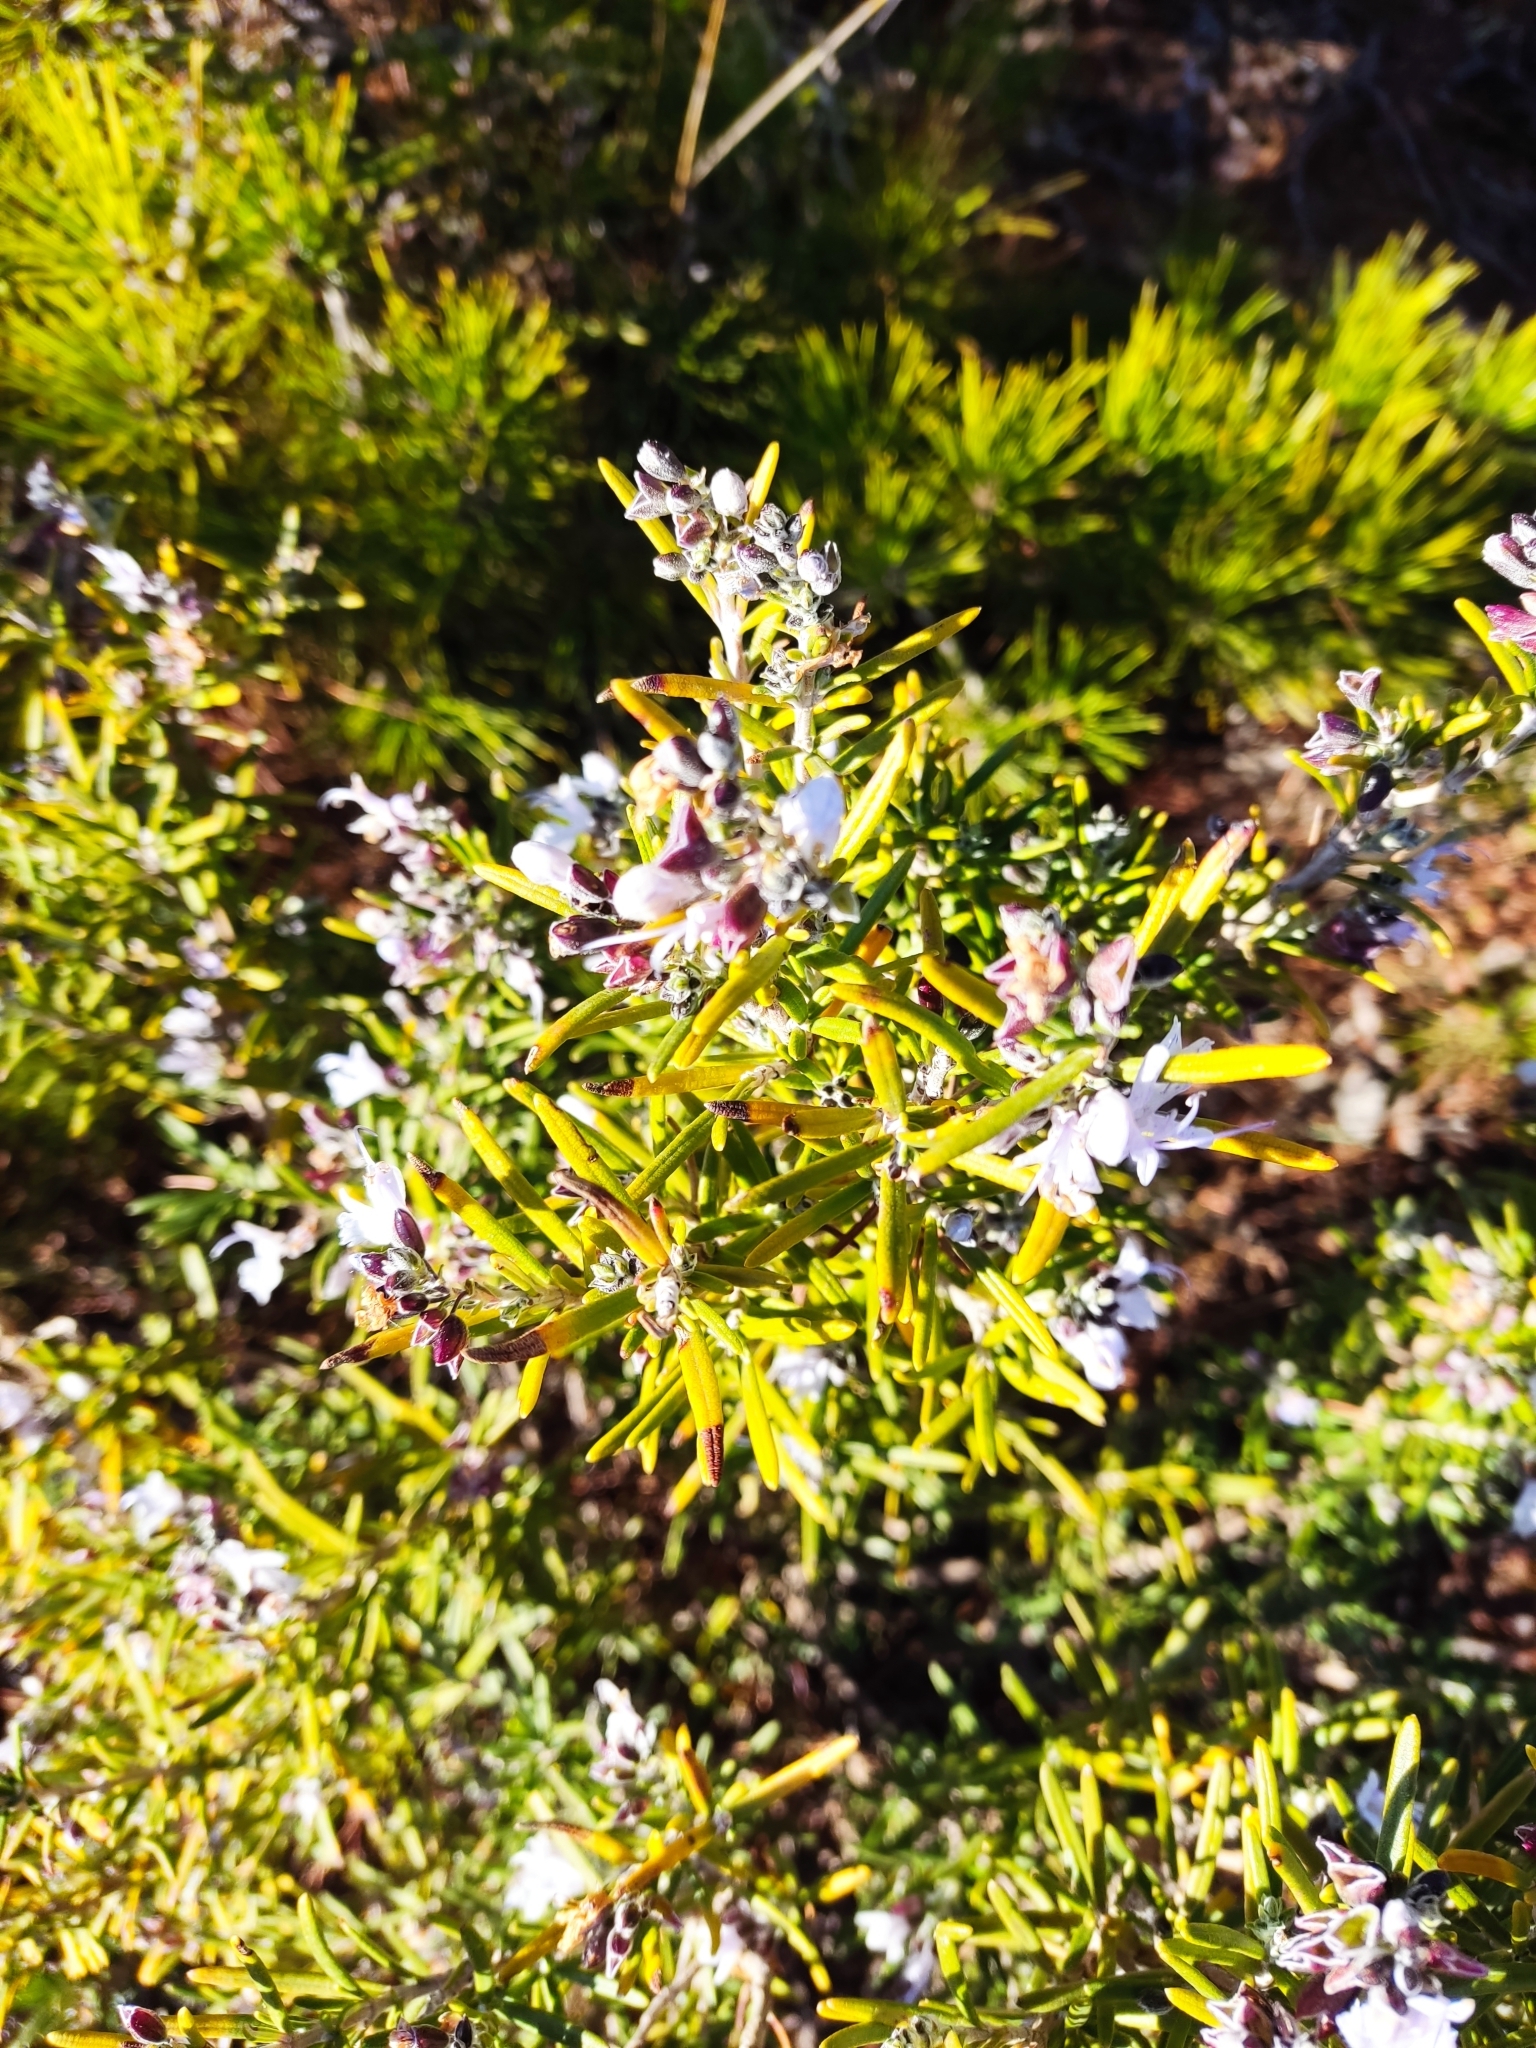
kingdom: Plantae
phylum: Tracheophyta
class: Magnoliopsida
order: Lamiales
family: Lamiaceae
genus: Salvia
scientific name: Salvia rosmarinus
